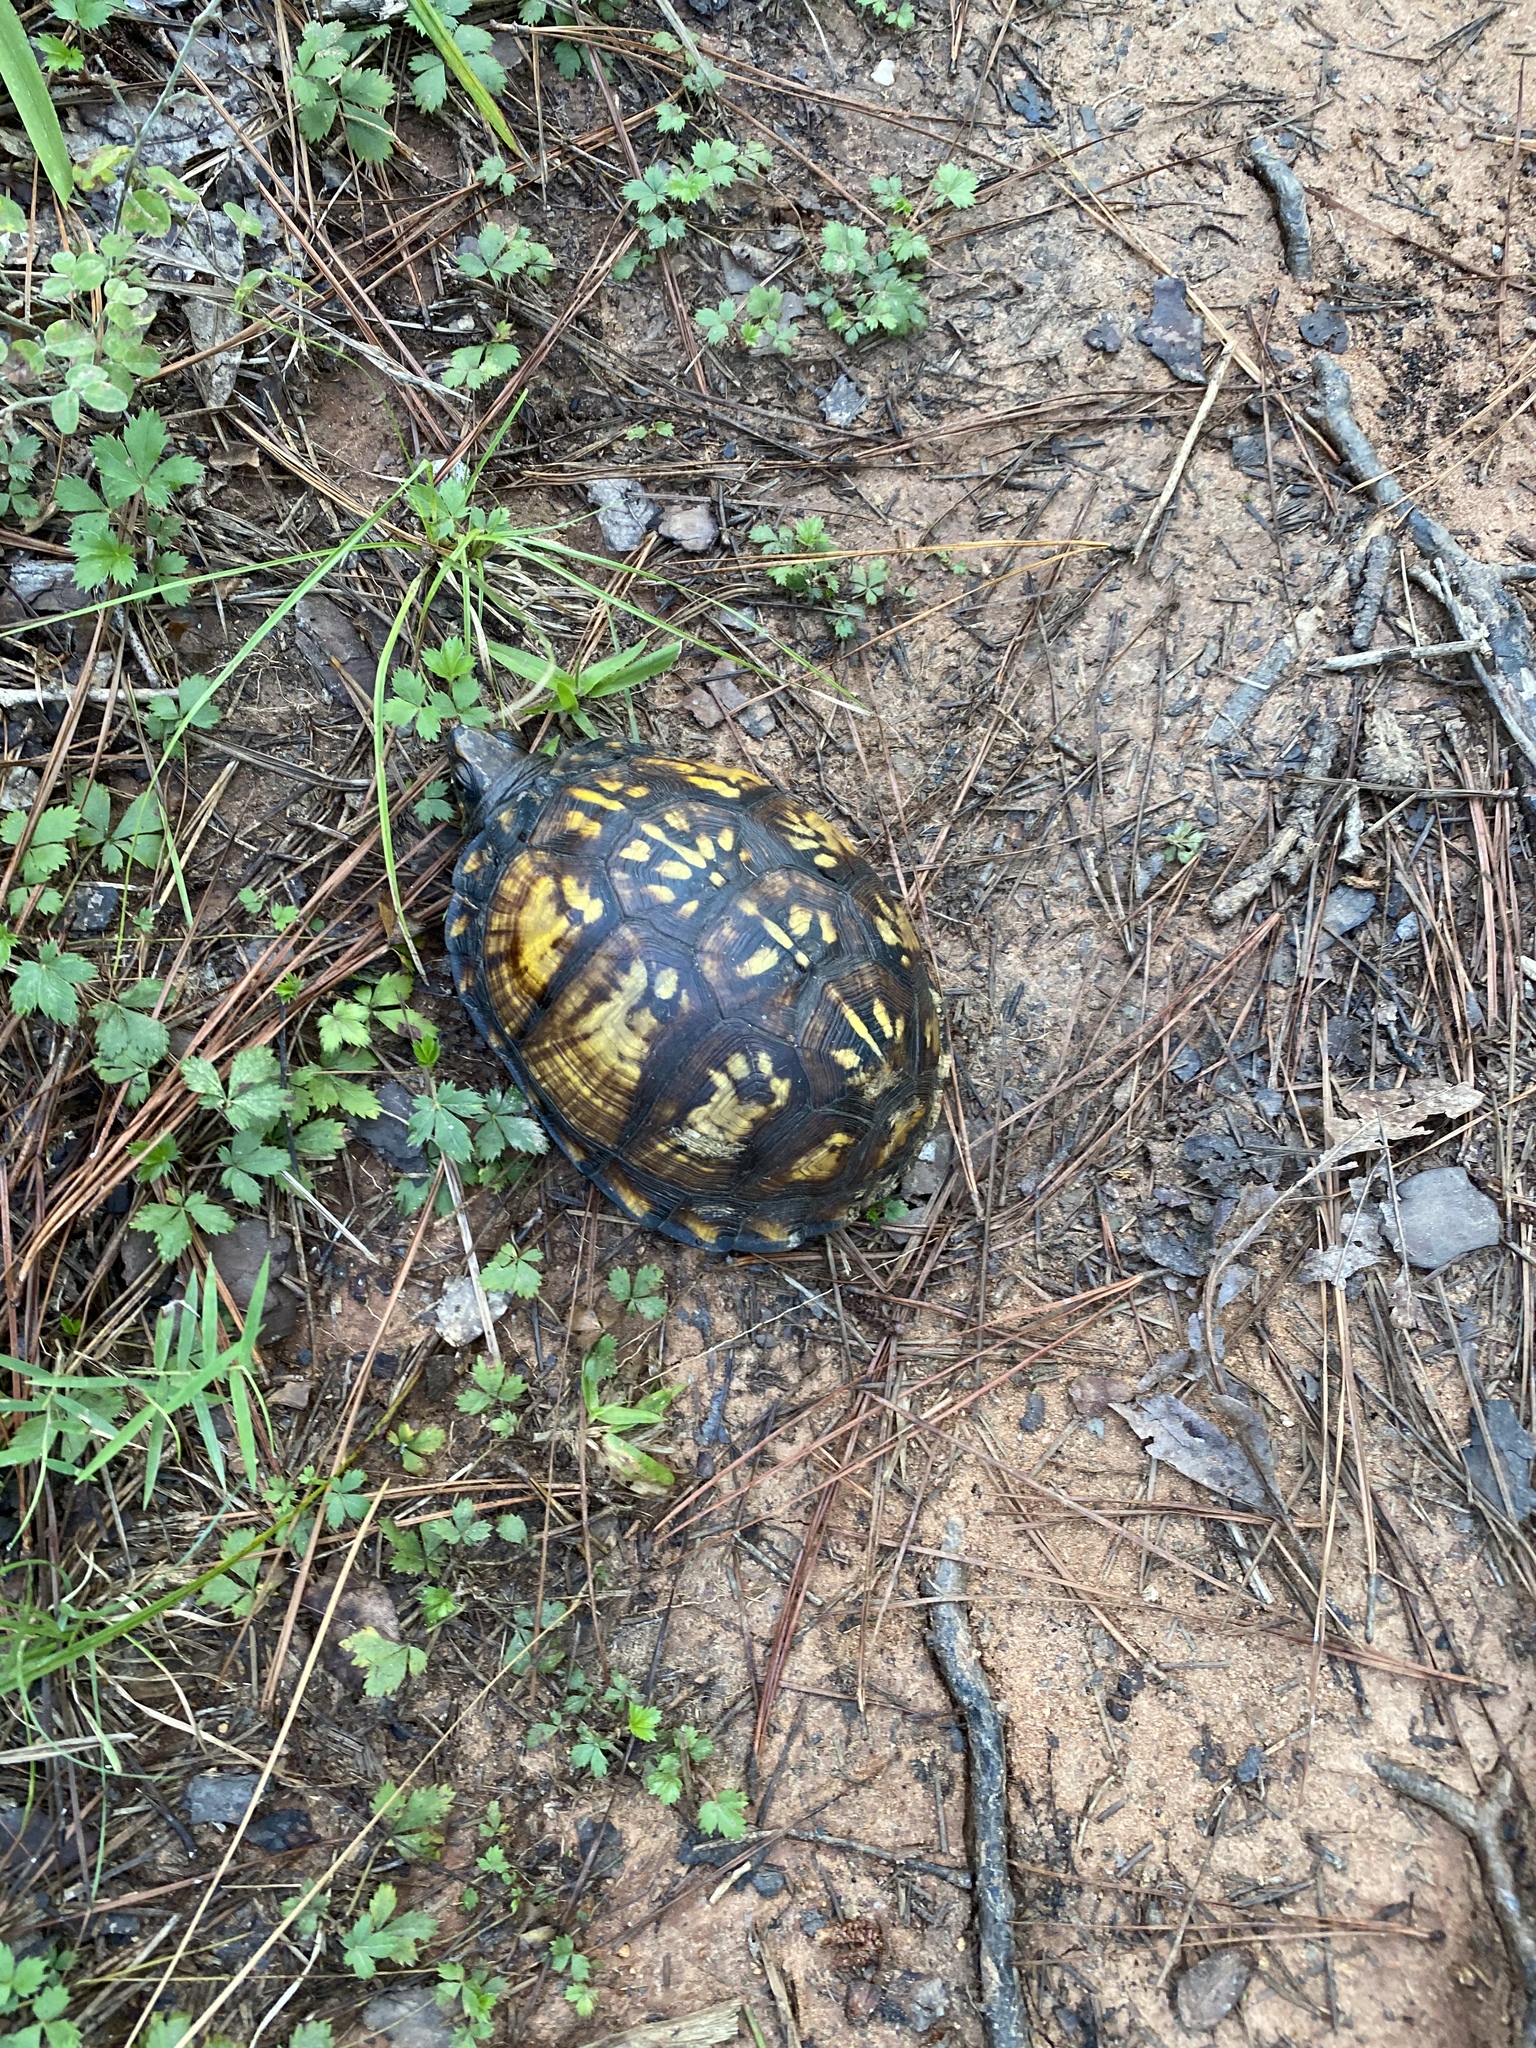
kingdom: Animalia
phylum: Chordata
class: Testudines
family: Emydidae
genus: Terrapene
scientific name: Terrapene carolina
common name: Common box turtle
